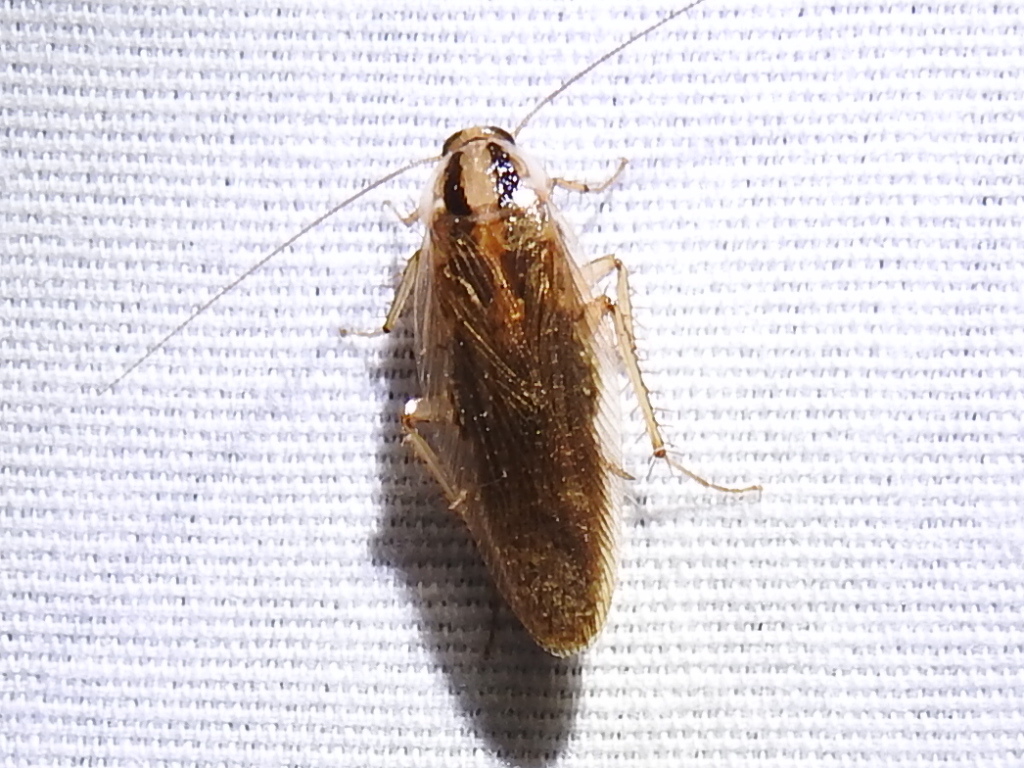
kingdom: Animalia
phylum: Arthropoda
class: Insecta
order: Blattodea
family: Ectobiidae
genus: Blattella
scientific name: Blattella asahinai
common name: Asian cockroach
